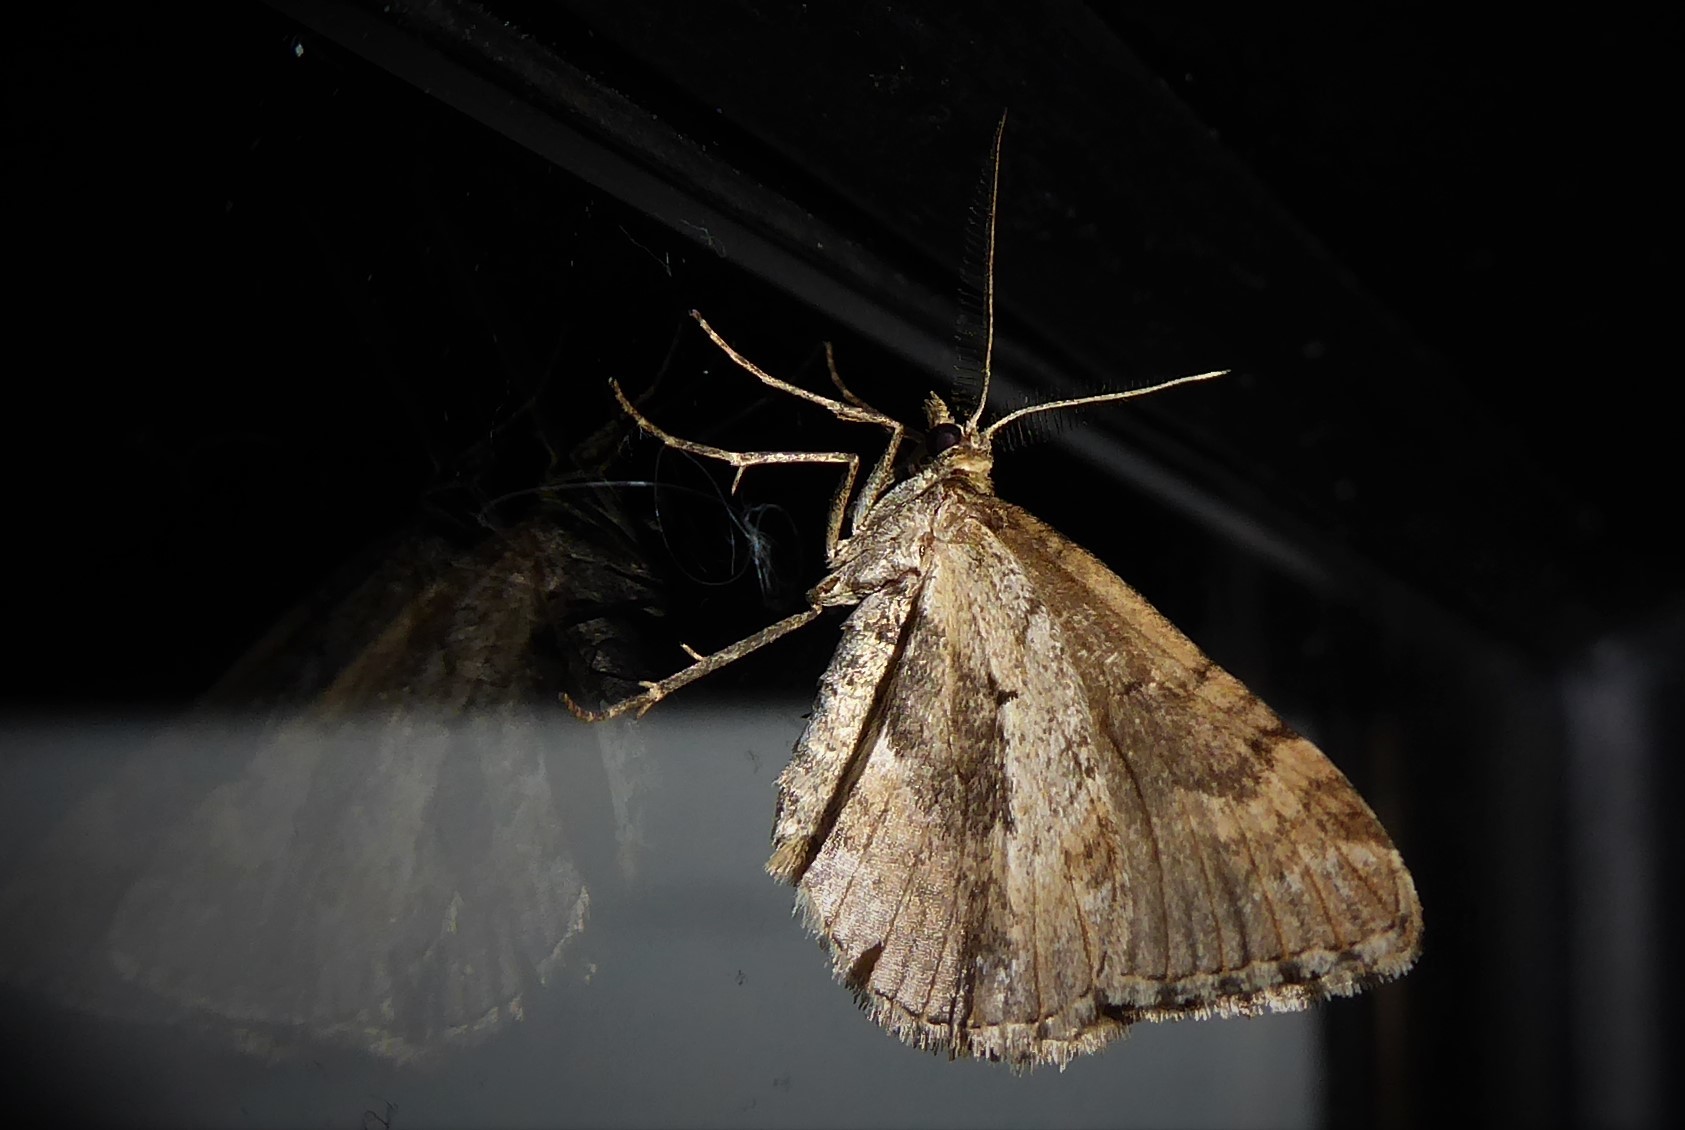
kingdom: Animalia
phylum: Arthropoda
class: Insecta
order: Lepidoptera
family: Geometridae
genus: Asaphodes
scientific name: Asaphodes aegrota
